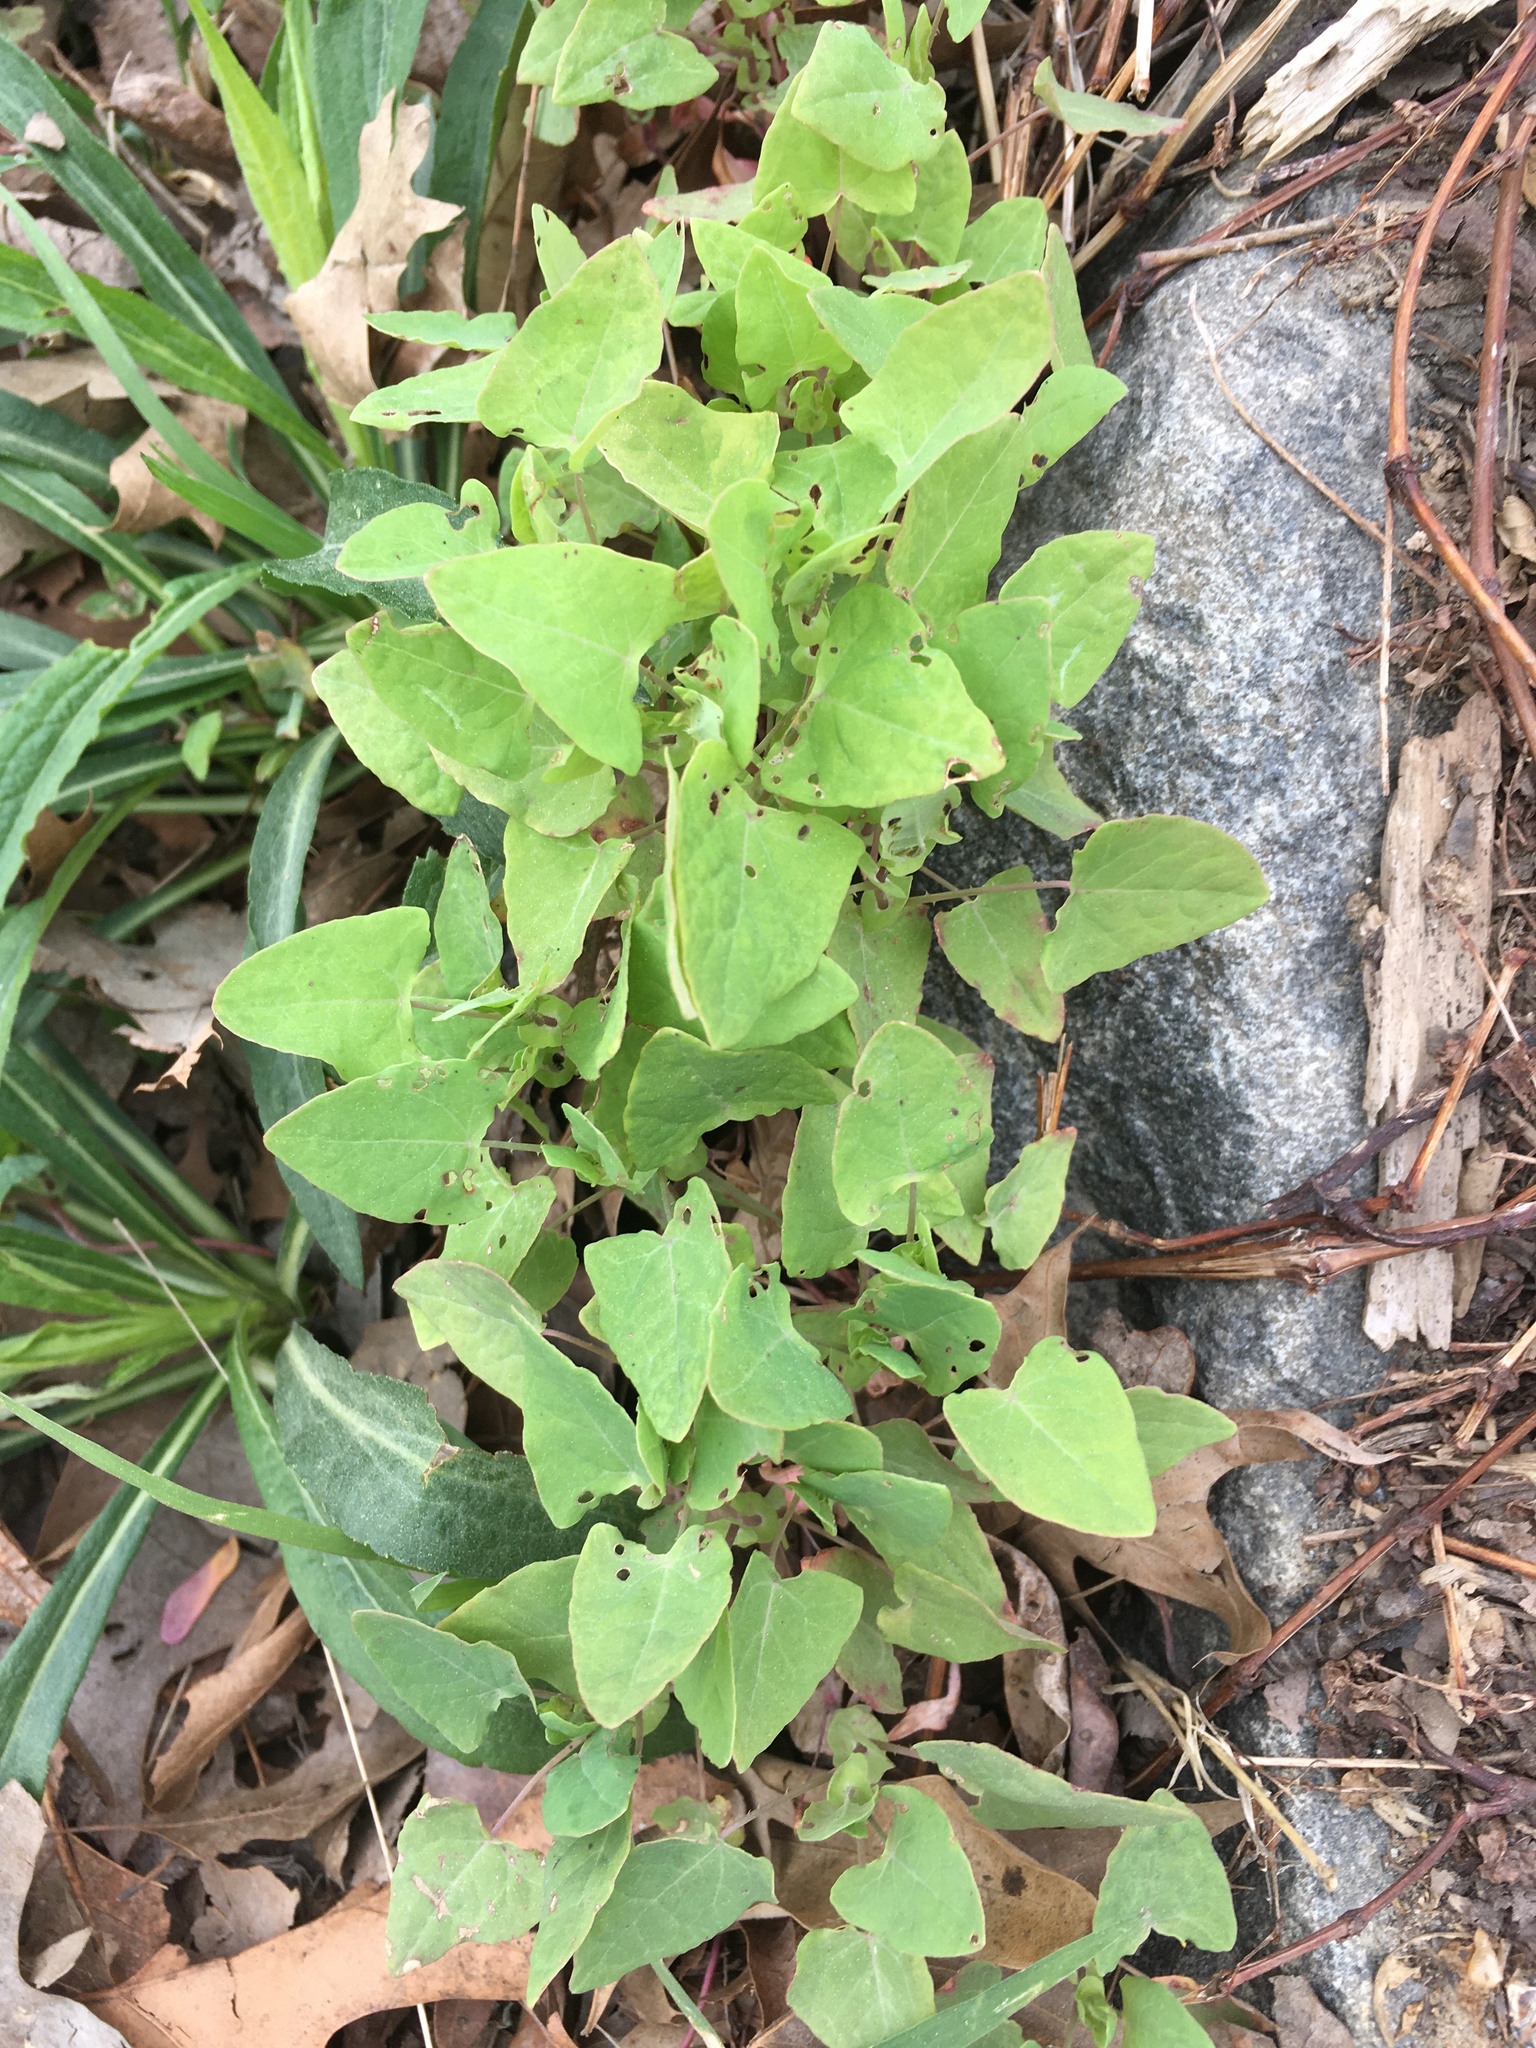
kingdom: Plantae
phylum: Tracheophyta
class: Magnoliopsida
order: Caryophyllales
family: Polygonaceae
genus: Persicaria
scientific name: Persicaria perfoliata
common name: Asiatic tearthumb
